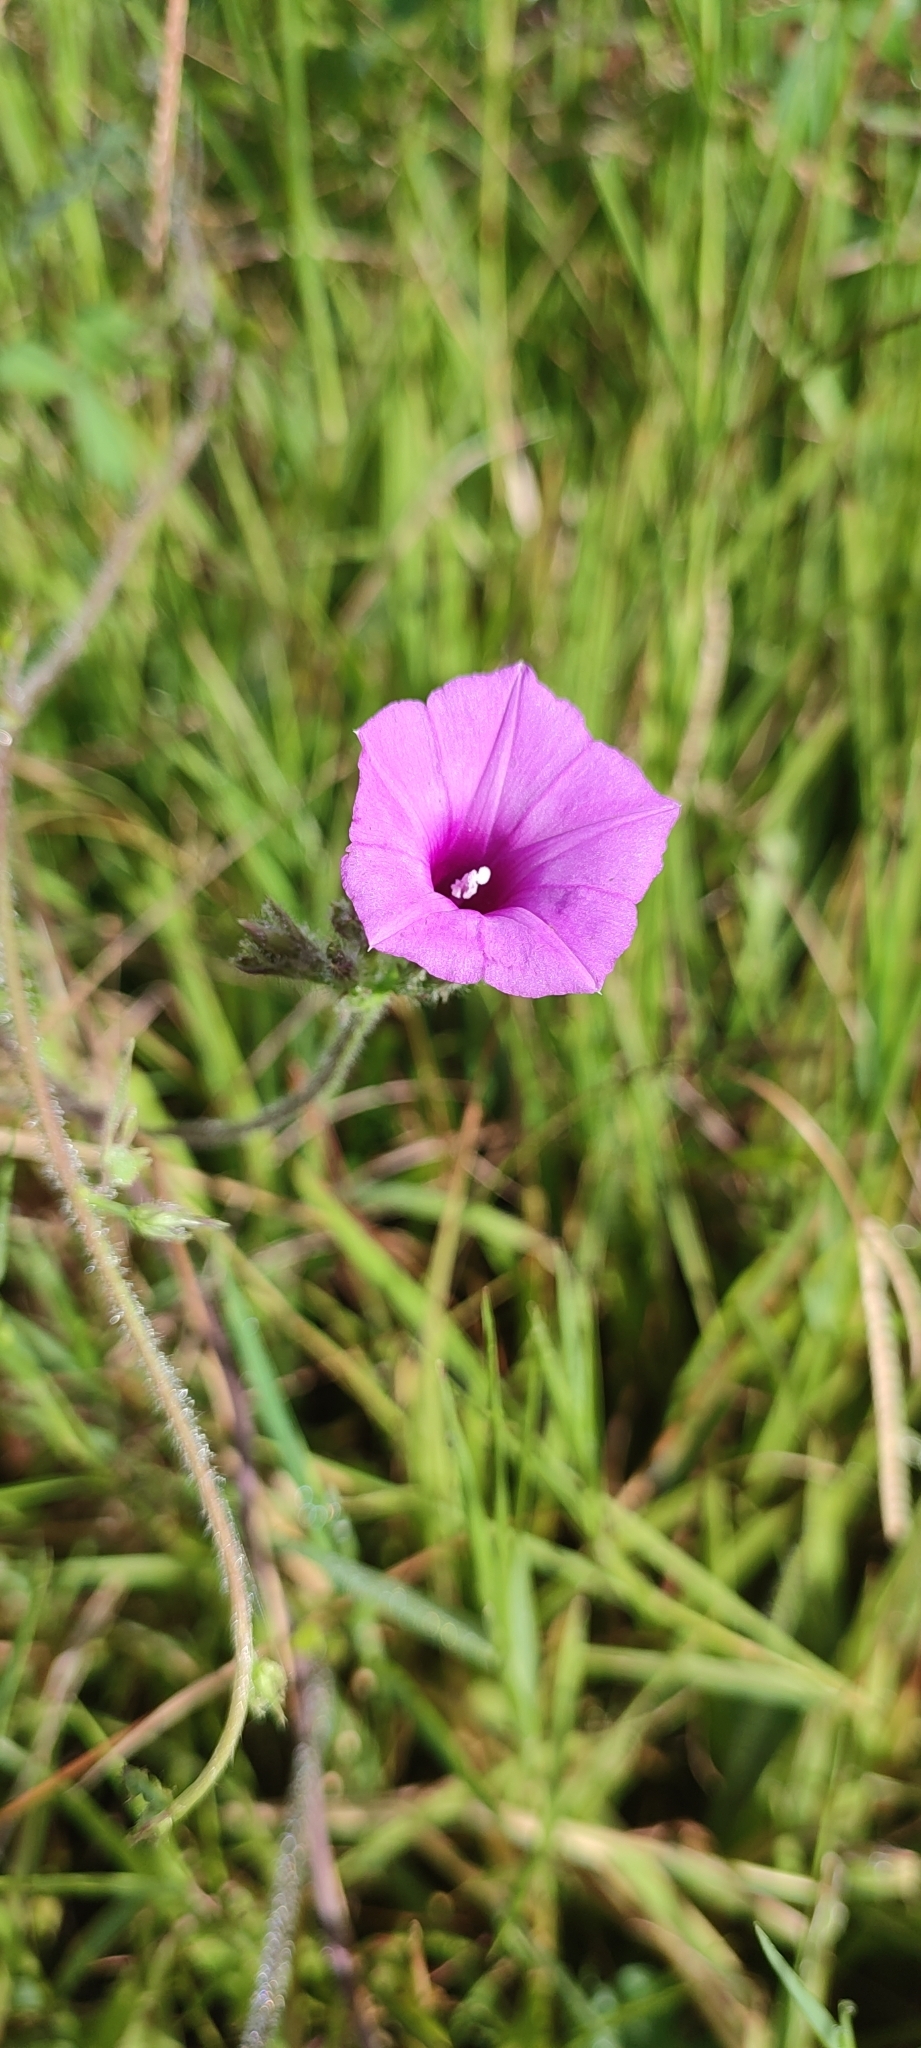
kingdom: Plantae
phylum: Tracheophyta
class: Magnoliopsida
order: Solanales
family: Convolvulaceae
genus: Ipomoea
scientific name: Ipomoea triloba
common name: Little-bell
